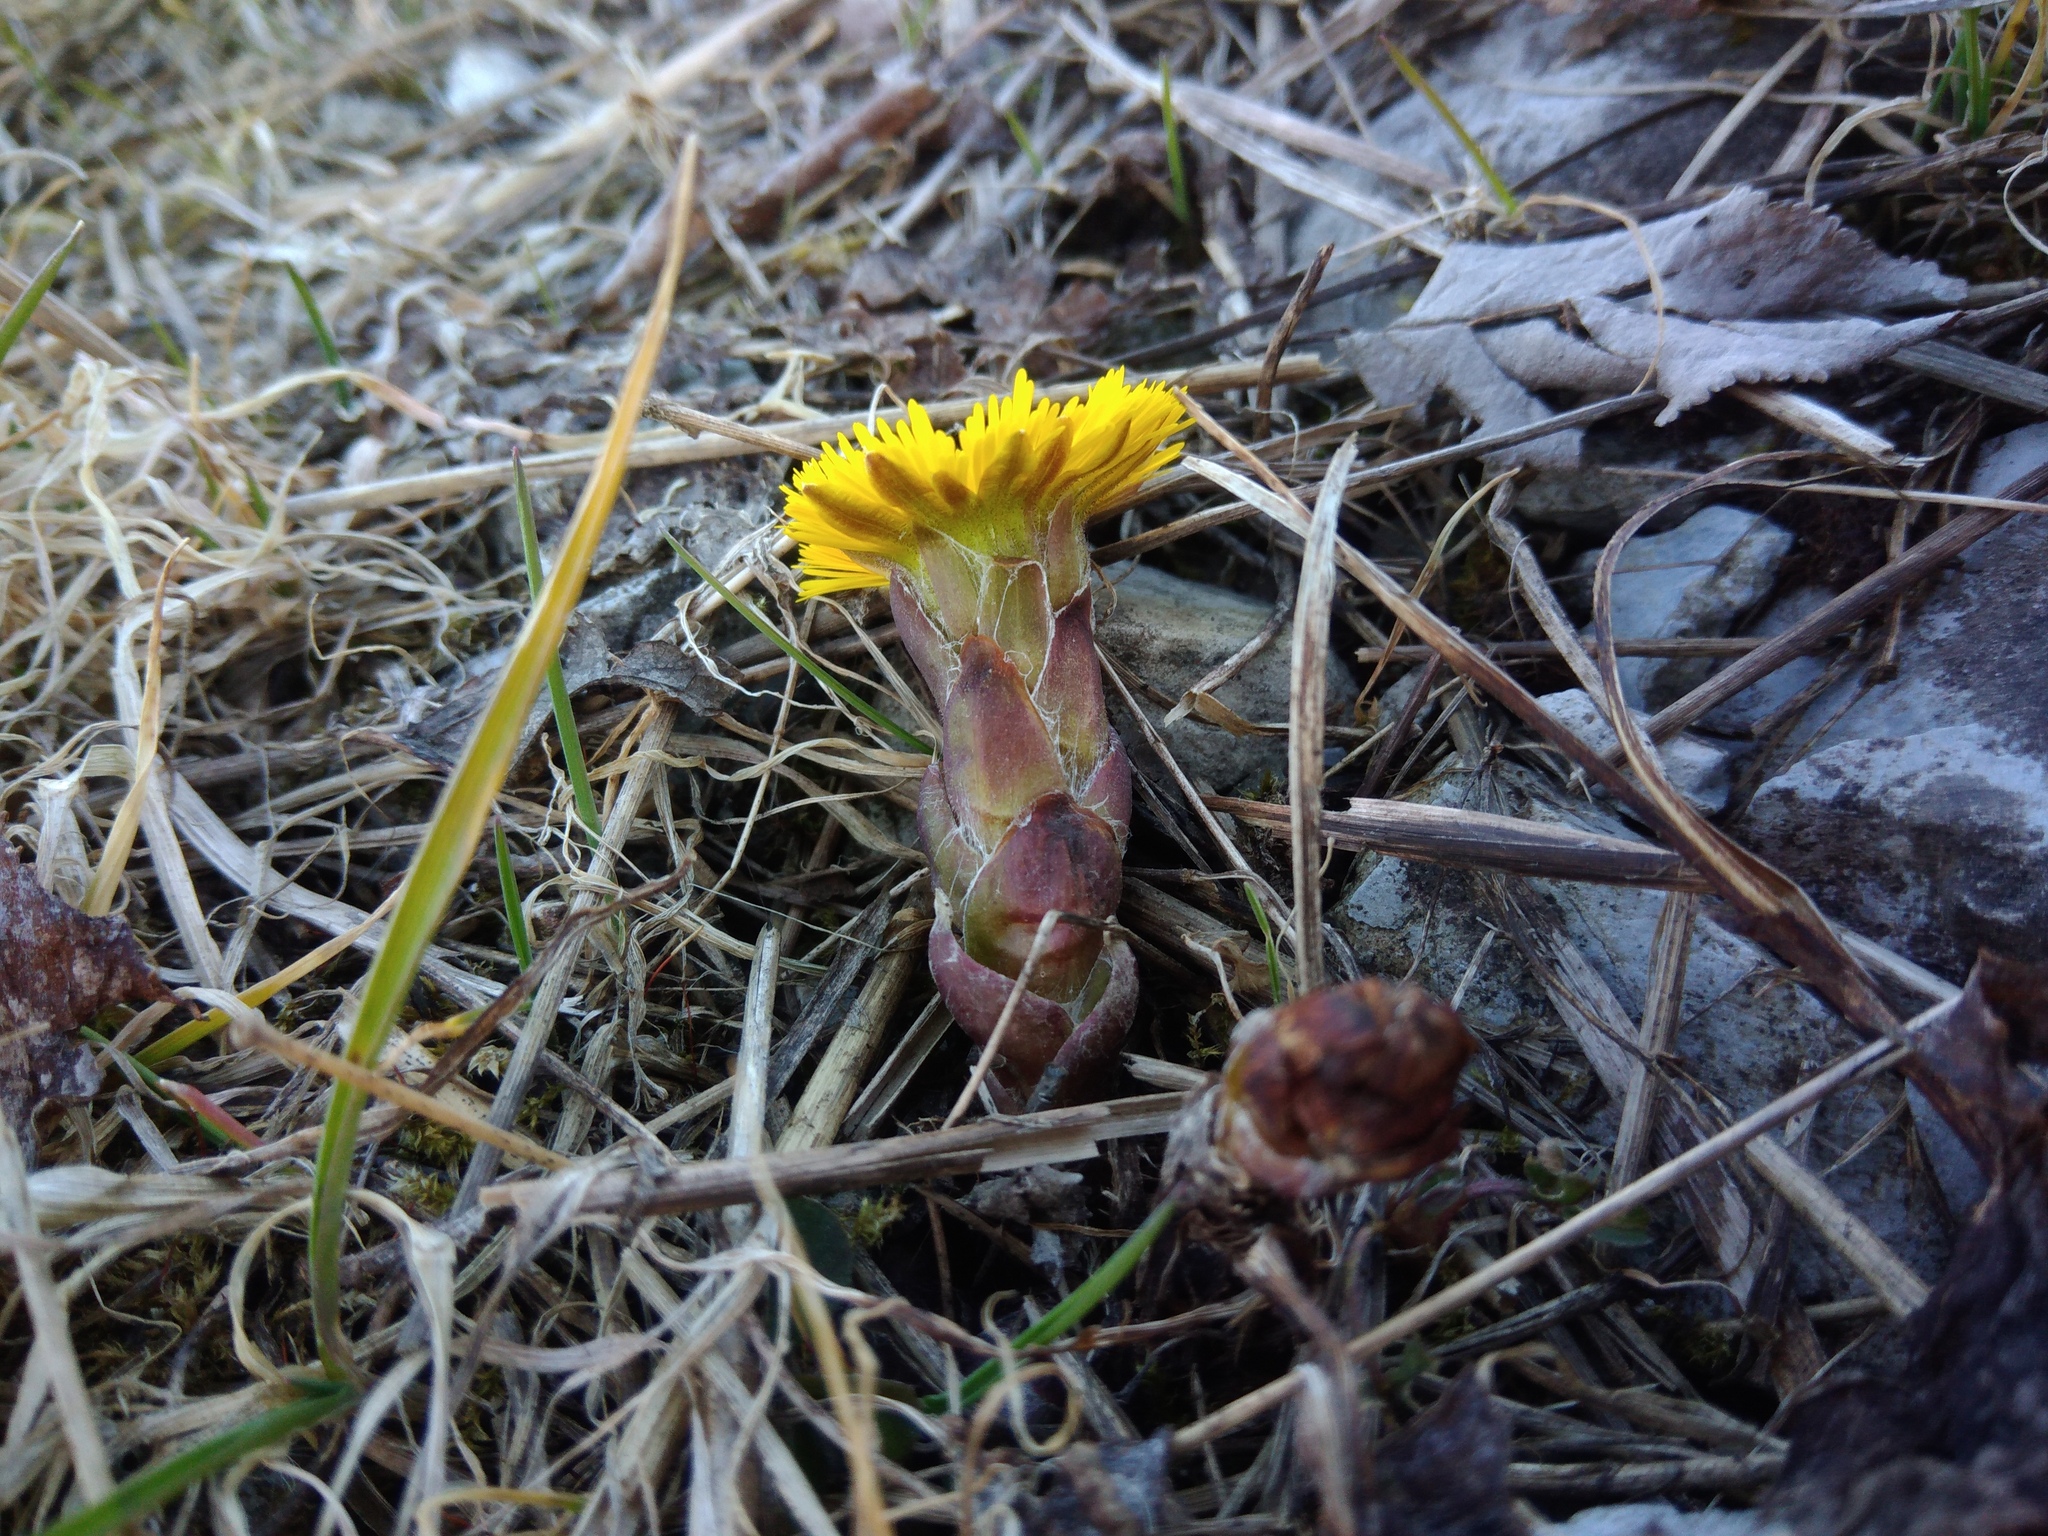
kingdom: Plantae
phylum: Tracheophyta
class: Magnoliopsida
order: Asterales
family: Asteraceae
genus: Tussilago
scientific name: Tussilago farfara
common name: Coltsfoot
